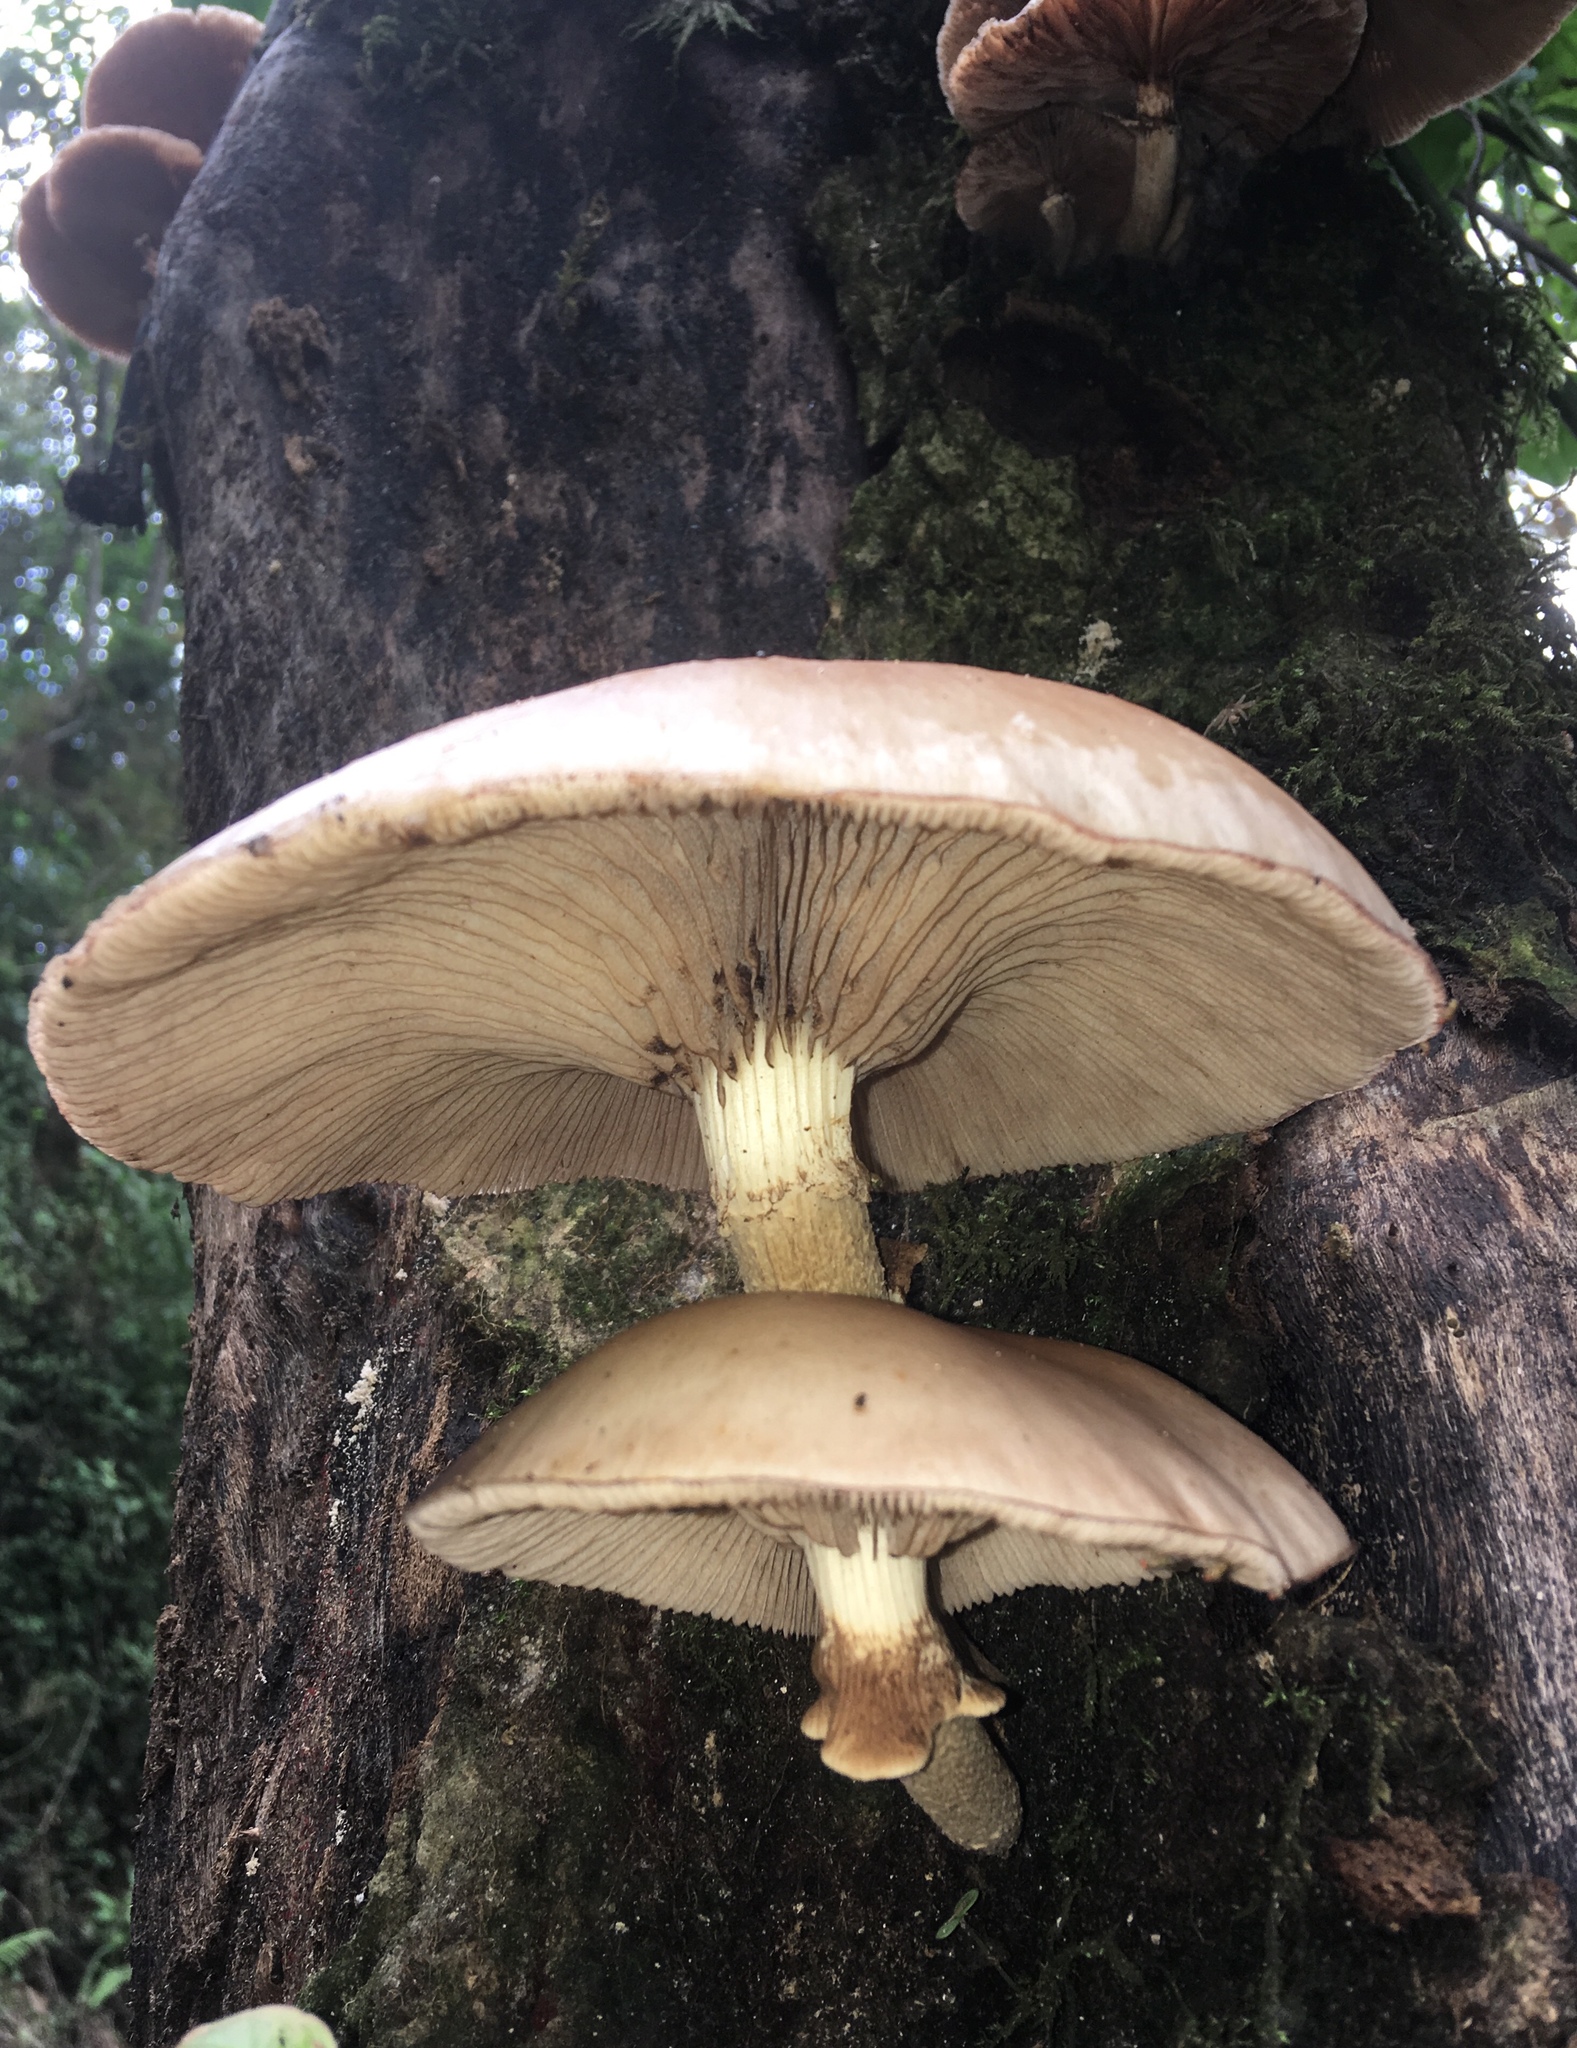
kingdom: Fungi
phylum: Basidiomycota
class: Agaricomycetes
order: Agaricales
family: Tubariaceae
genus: Cyclocybe
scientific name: Cyclocybe cylindracea
